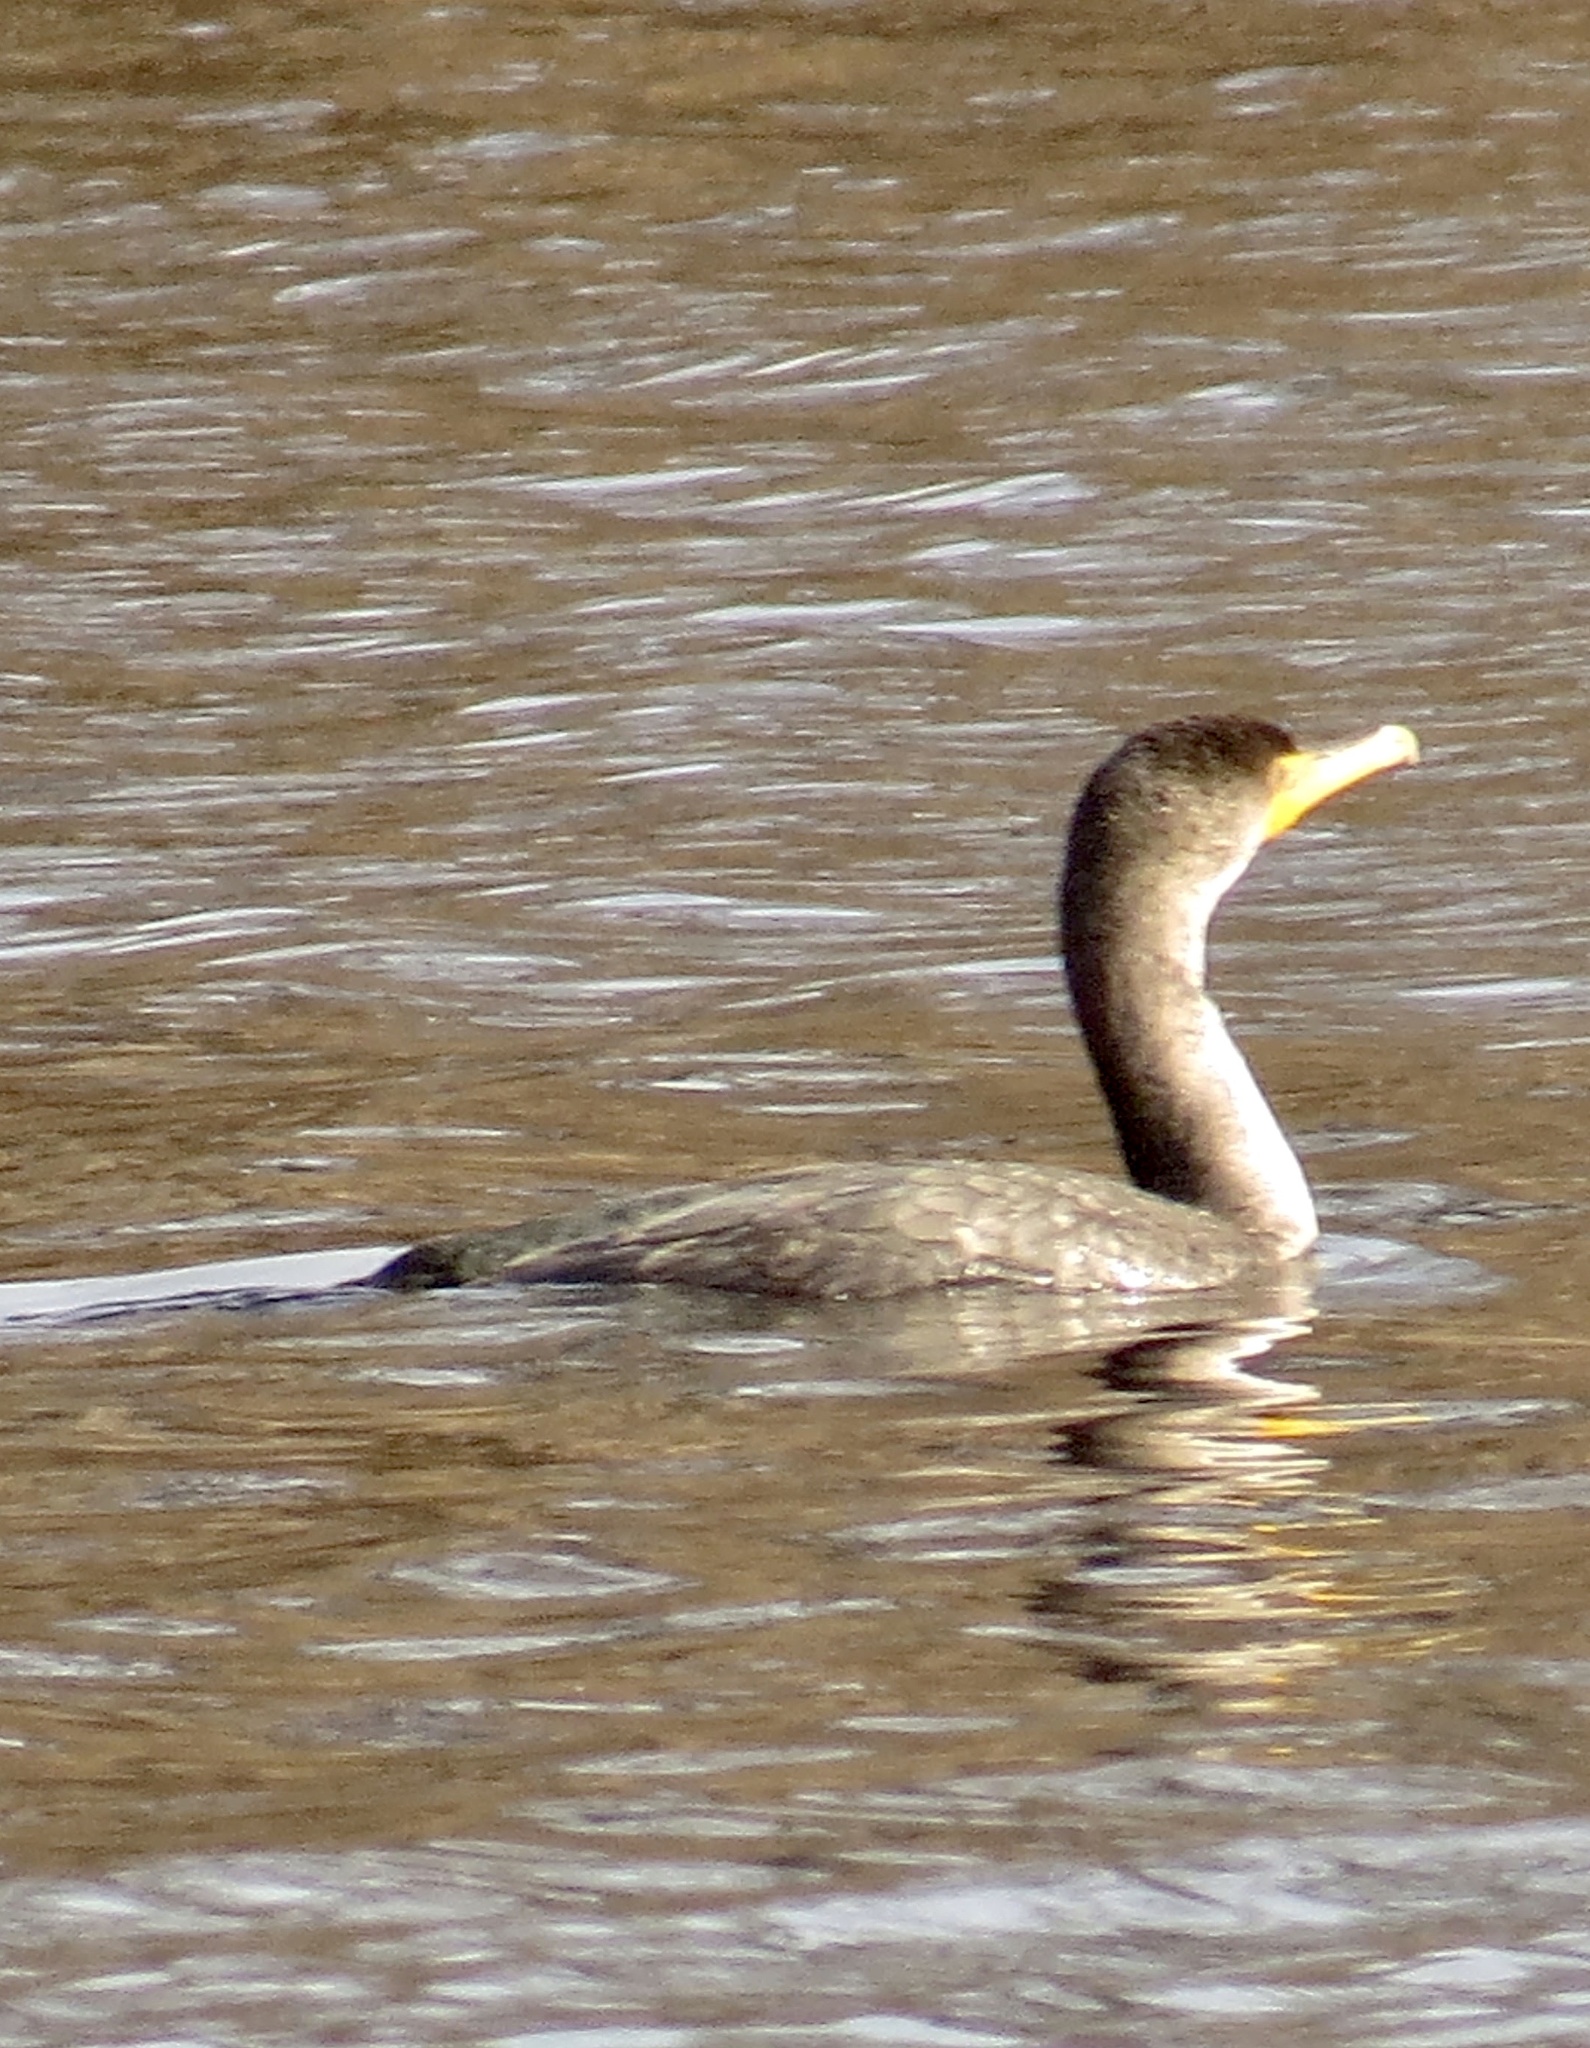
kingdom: Animalia
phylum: Chordata
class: Aves
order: Suliformes
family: Phalacrocoracidae
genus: Phalacrocorax
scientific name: Phalacrocorax auritus
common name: Double-crested cormorant
